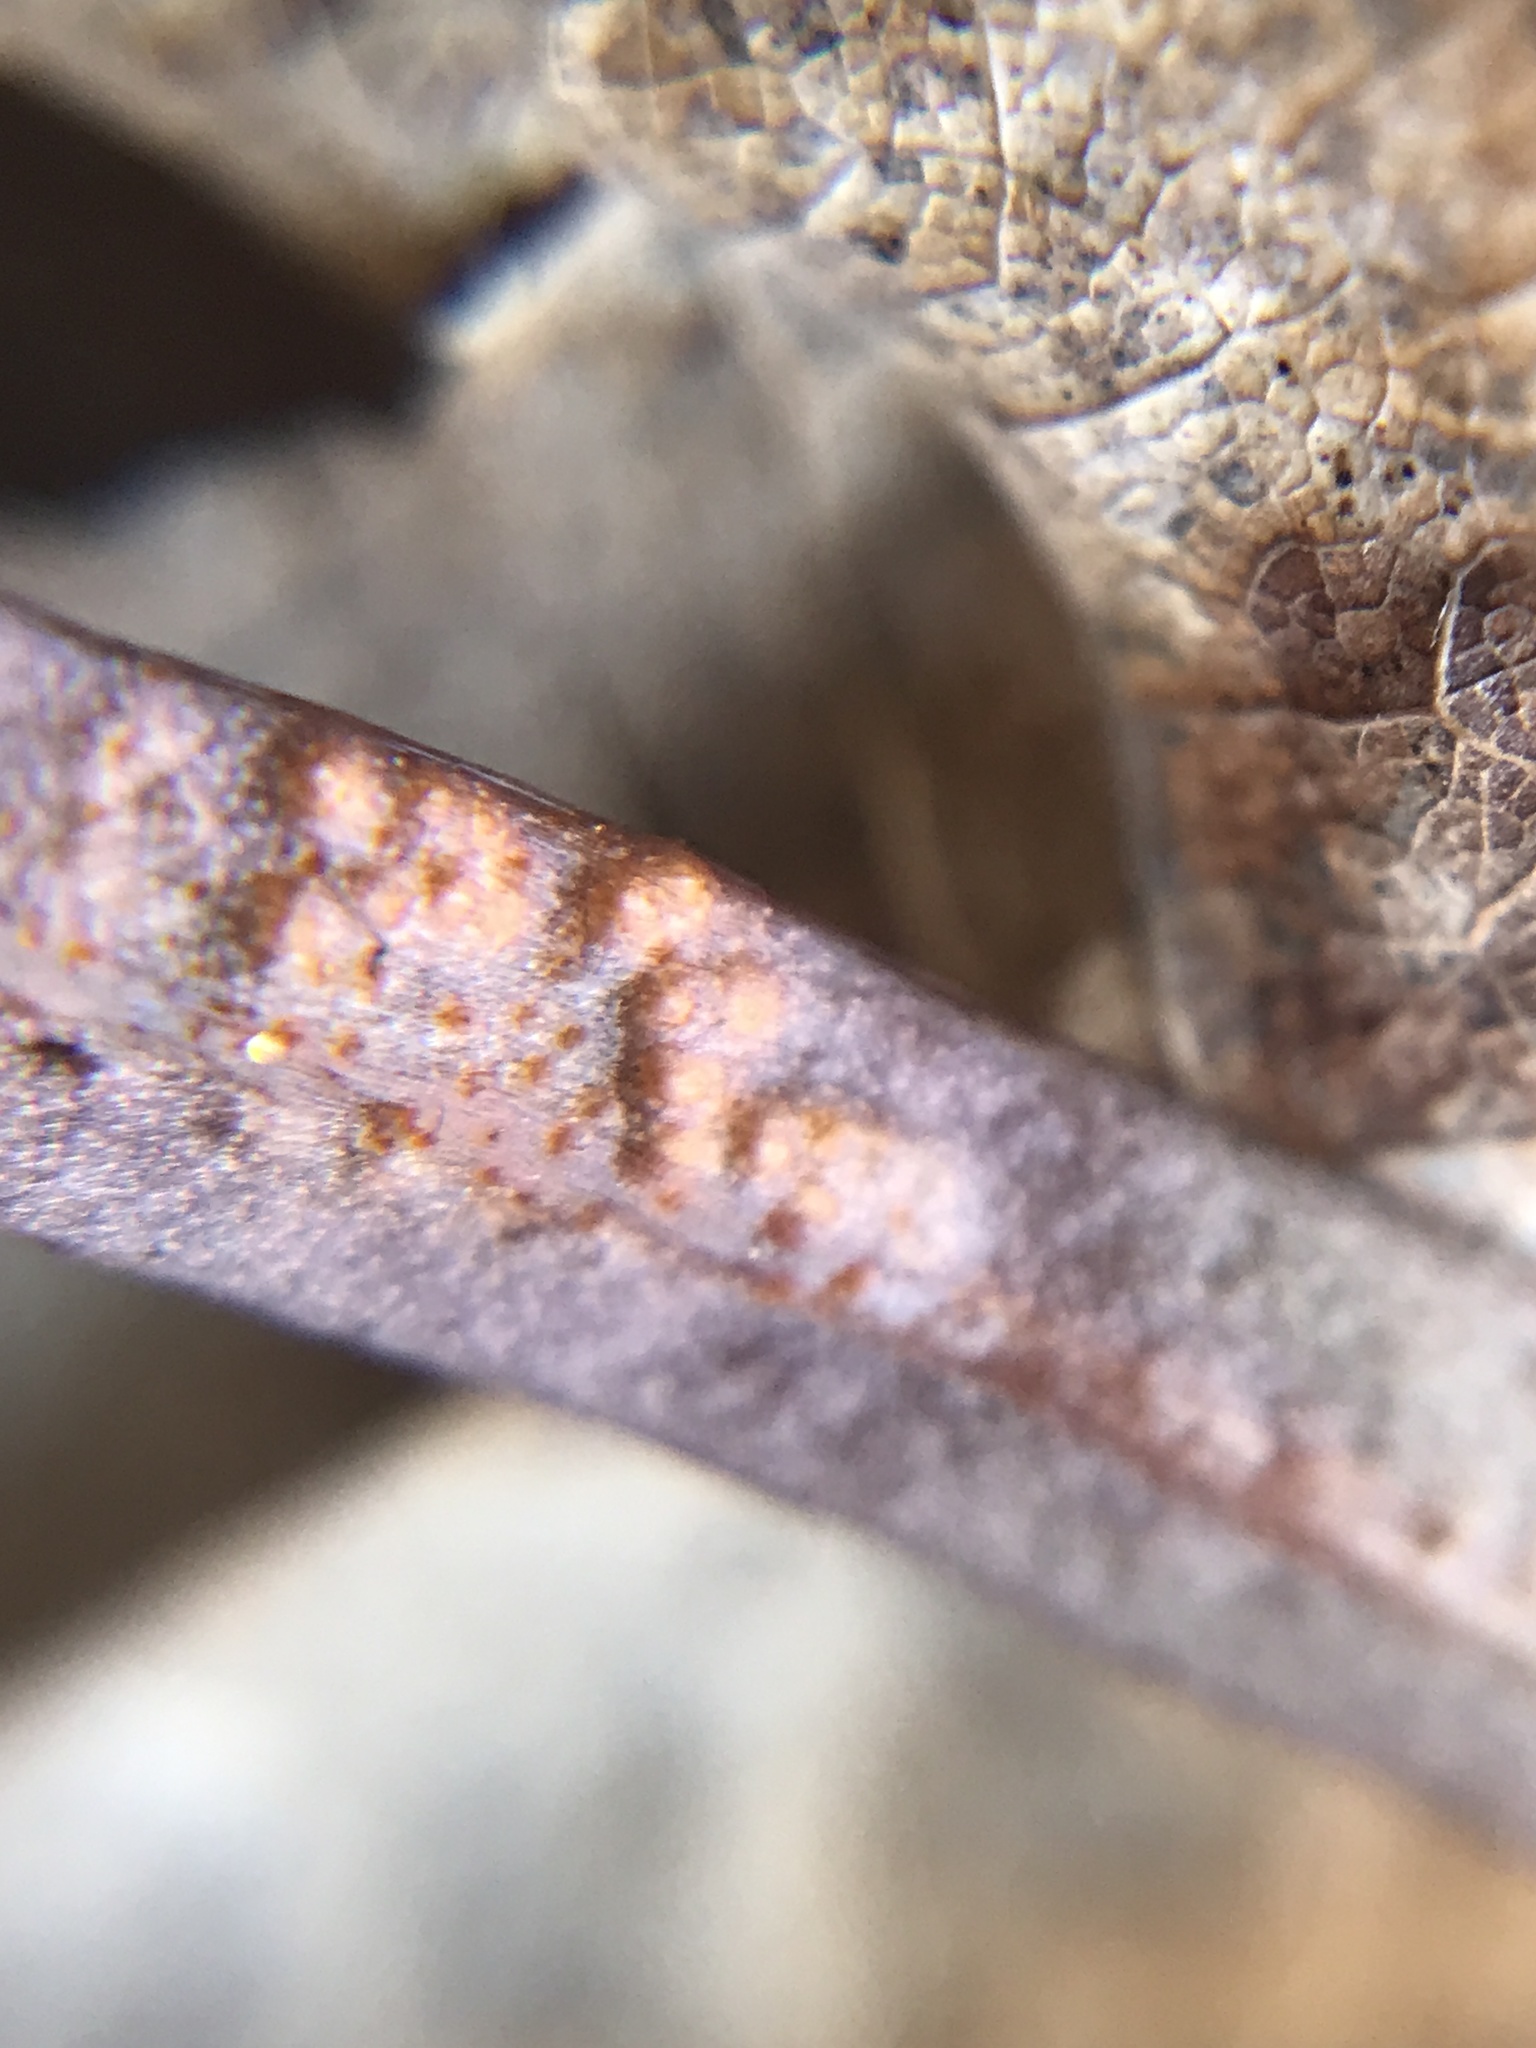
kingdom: Plantae
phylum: Tracheophyta
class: Magnoliopsida
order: Caryophyllales
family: Montiaceae
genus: Claytonia
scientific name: Claytonia virginica
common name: Virginia springbeauty
